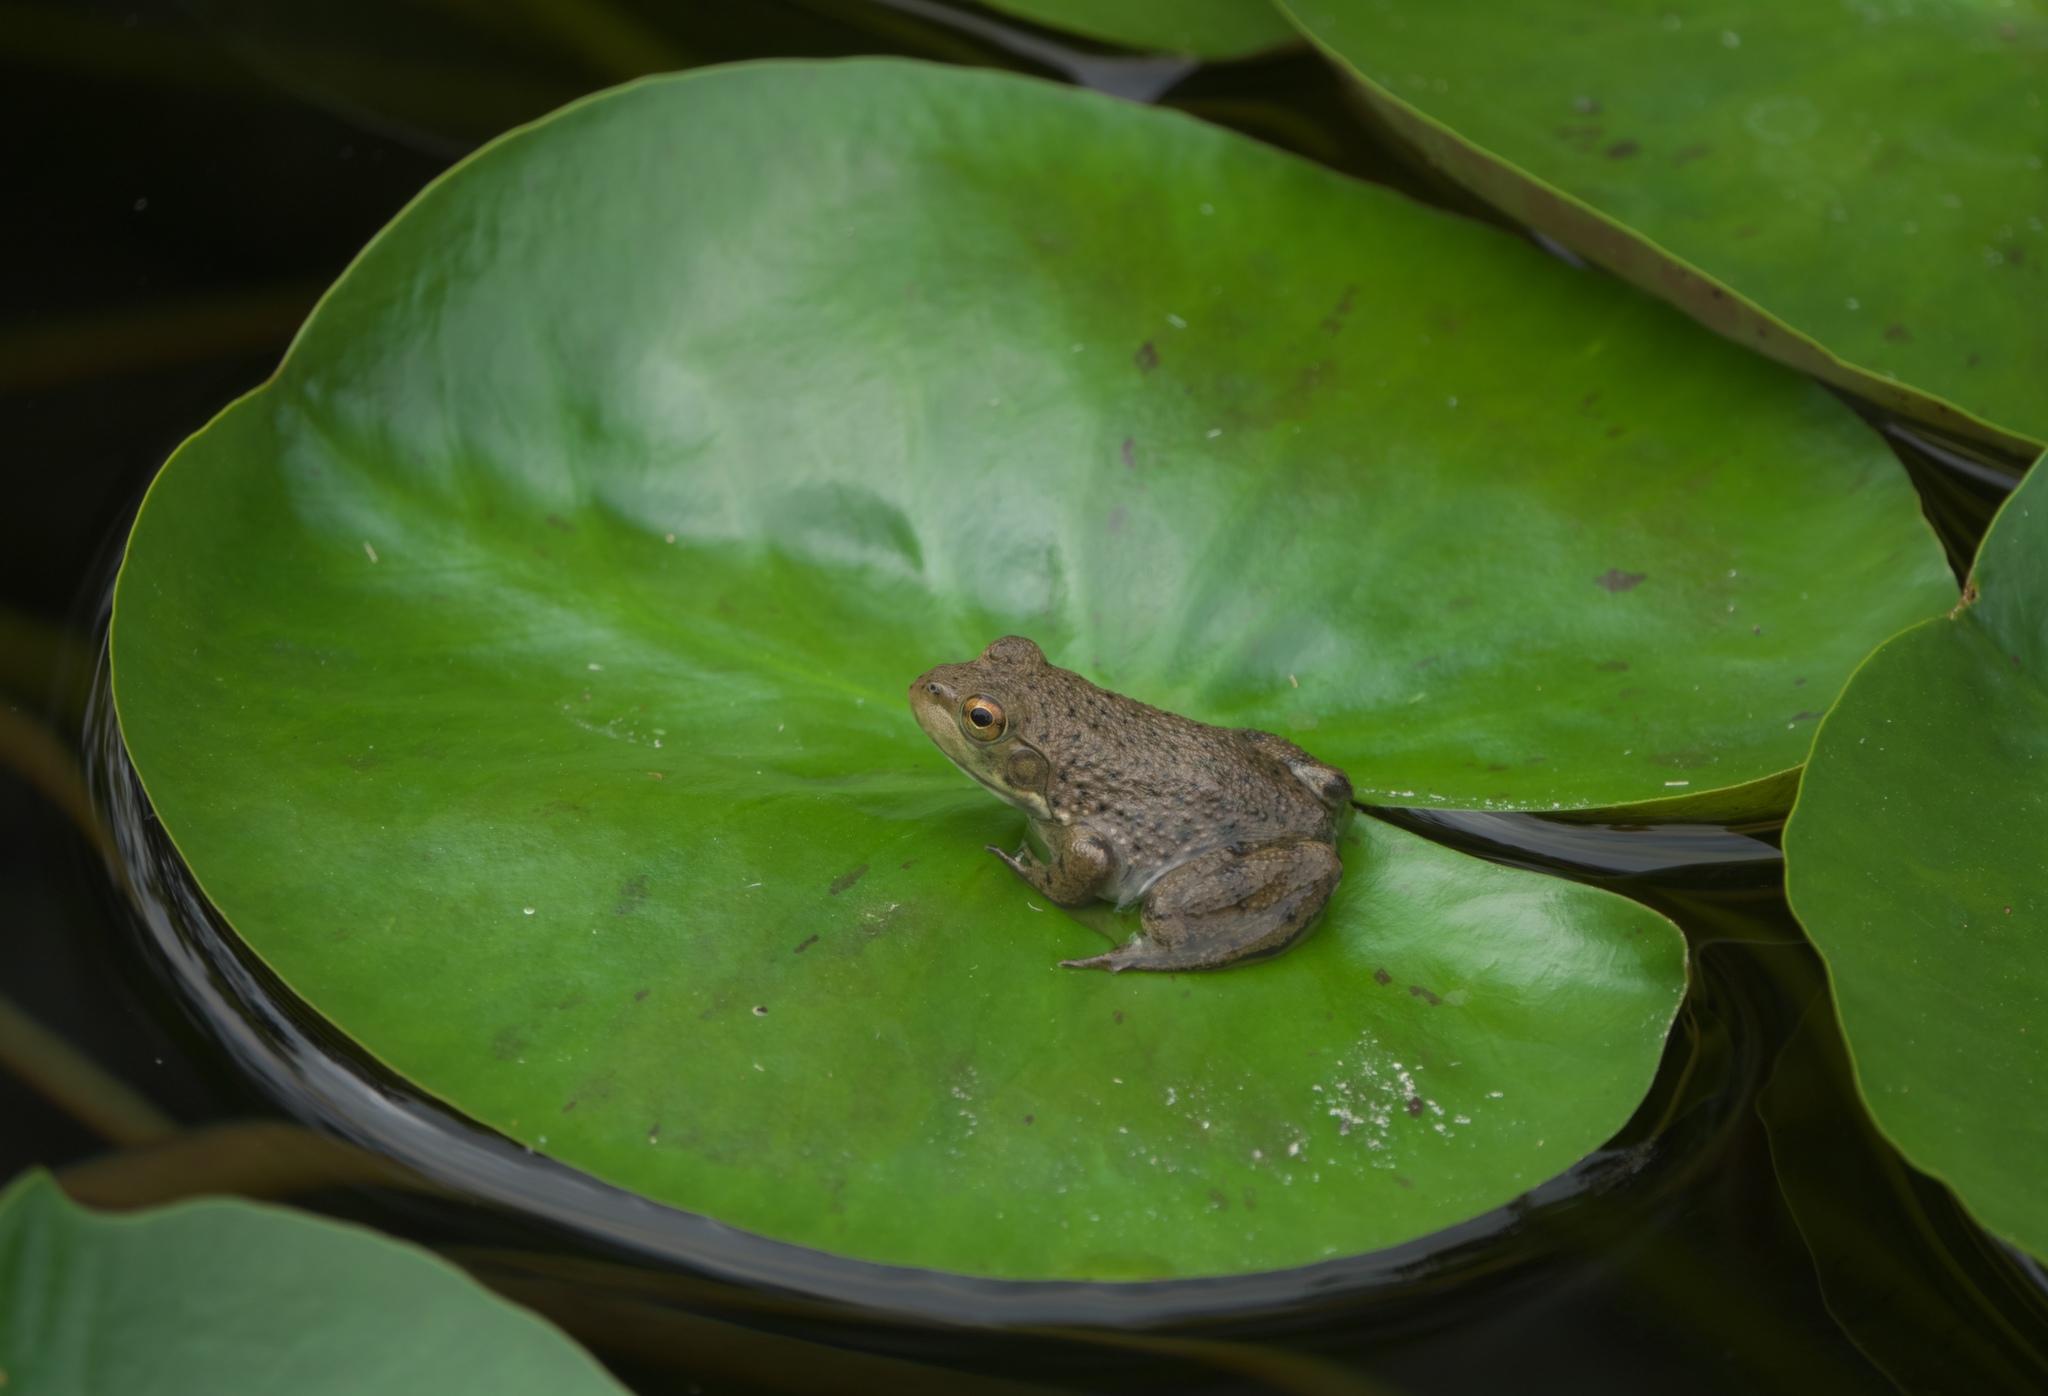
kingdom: Animalia
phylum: Chordata
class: Amphibia
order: Anura
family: Ranidae
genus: Lithobates
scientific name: Lithobates catesbeianus
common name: American bullfrog
